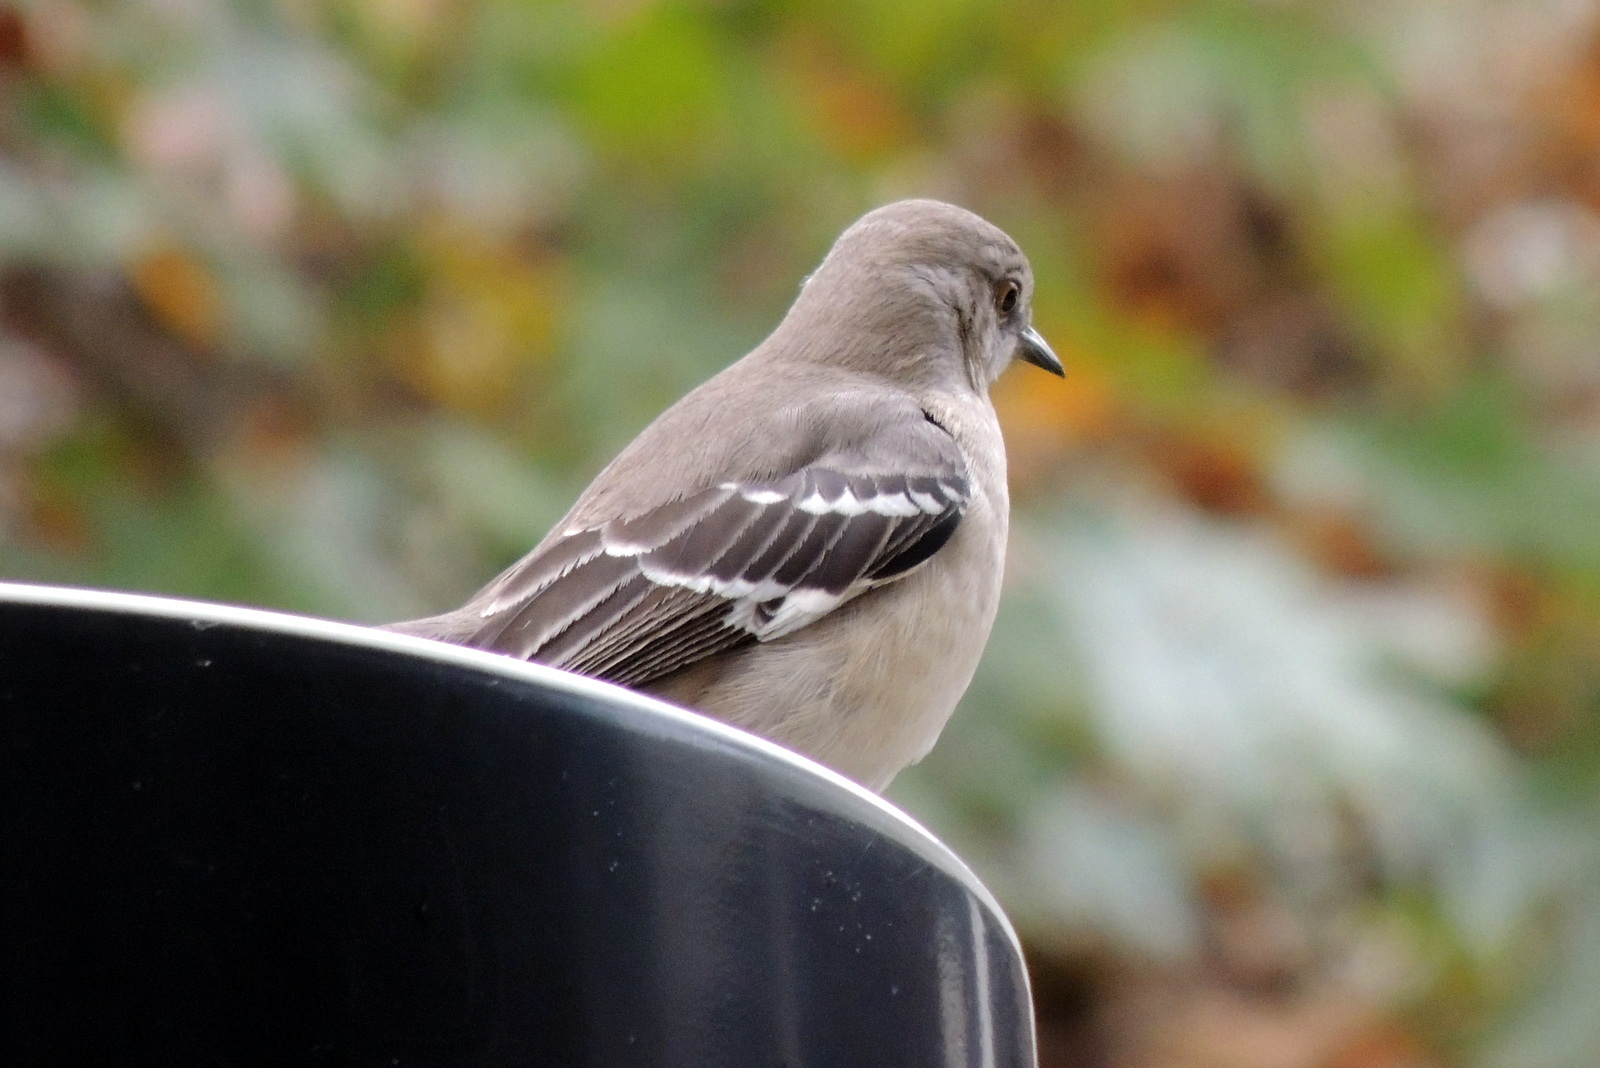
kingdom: Animalia
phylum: Chordata
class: Aves
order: Passeriformes
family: Mimidae
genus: Mimus
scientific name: Mimus polyglottos
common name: Northern mockingbird
